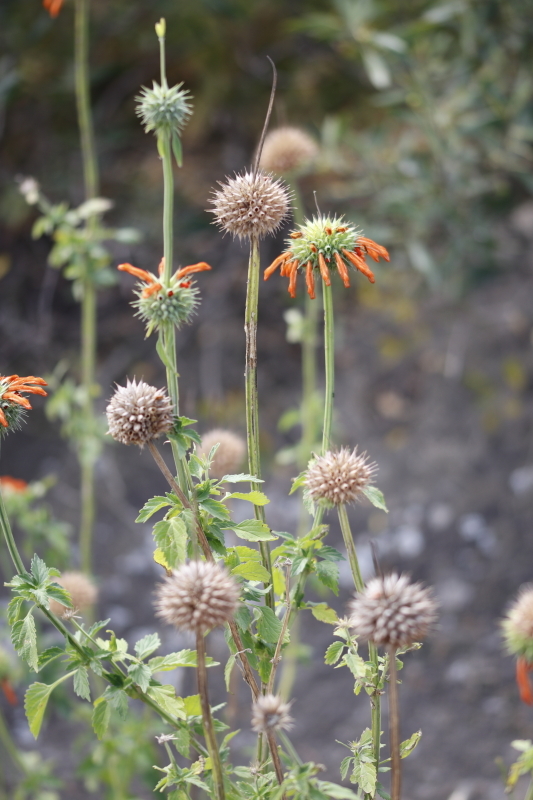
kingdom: Plantae
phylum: Tracheophyta
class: Magnoliopsida
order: Lamiales
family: Lamiaceae
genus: Leonotis
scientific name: Leonotis nepetifolia
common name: Christmas candlestick
